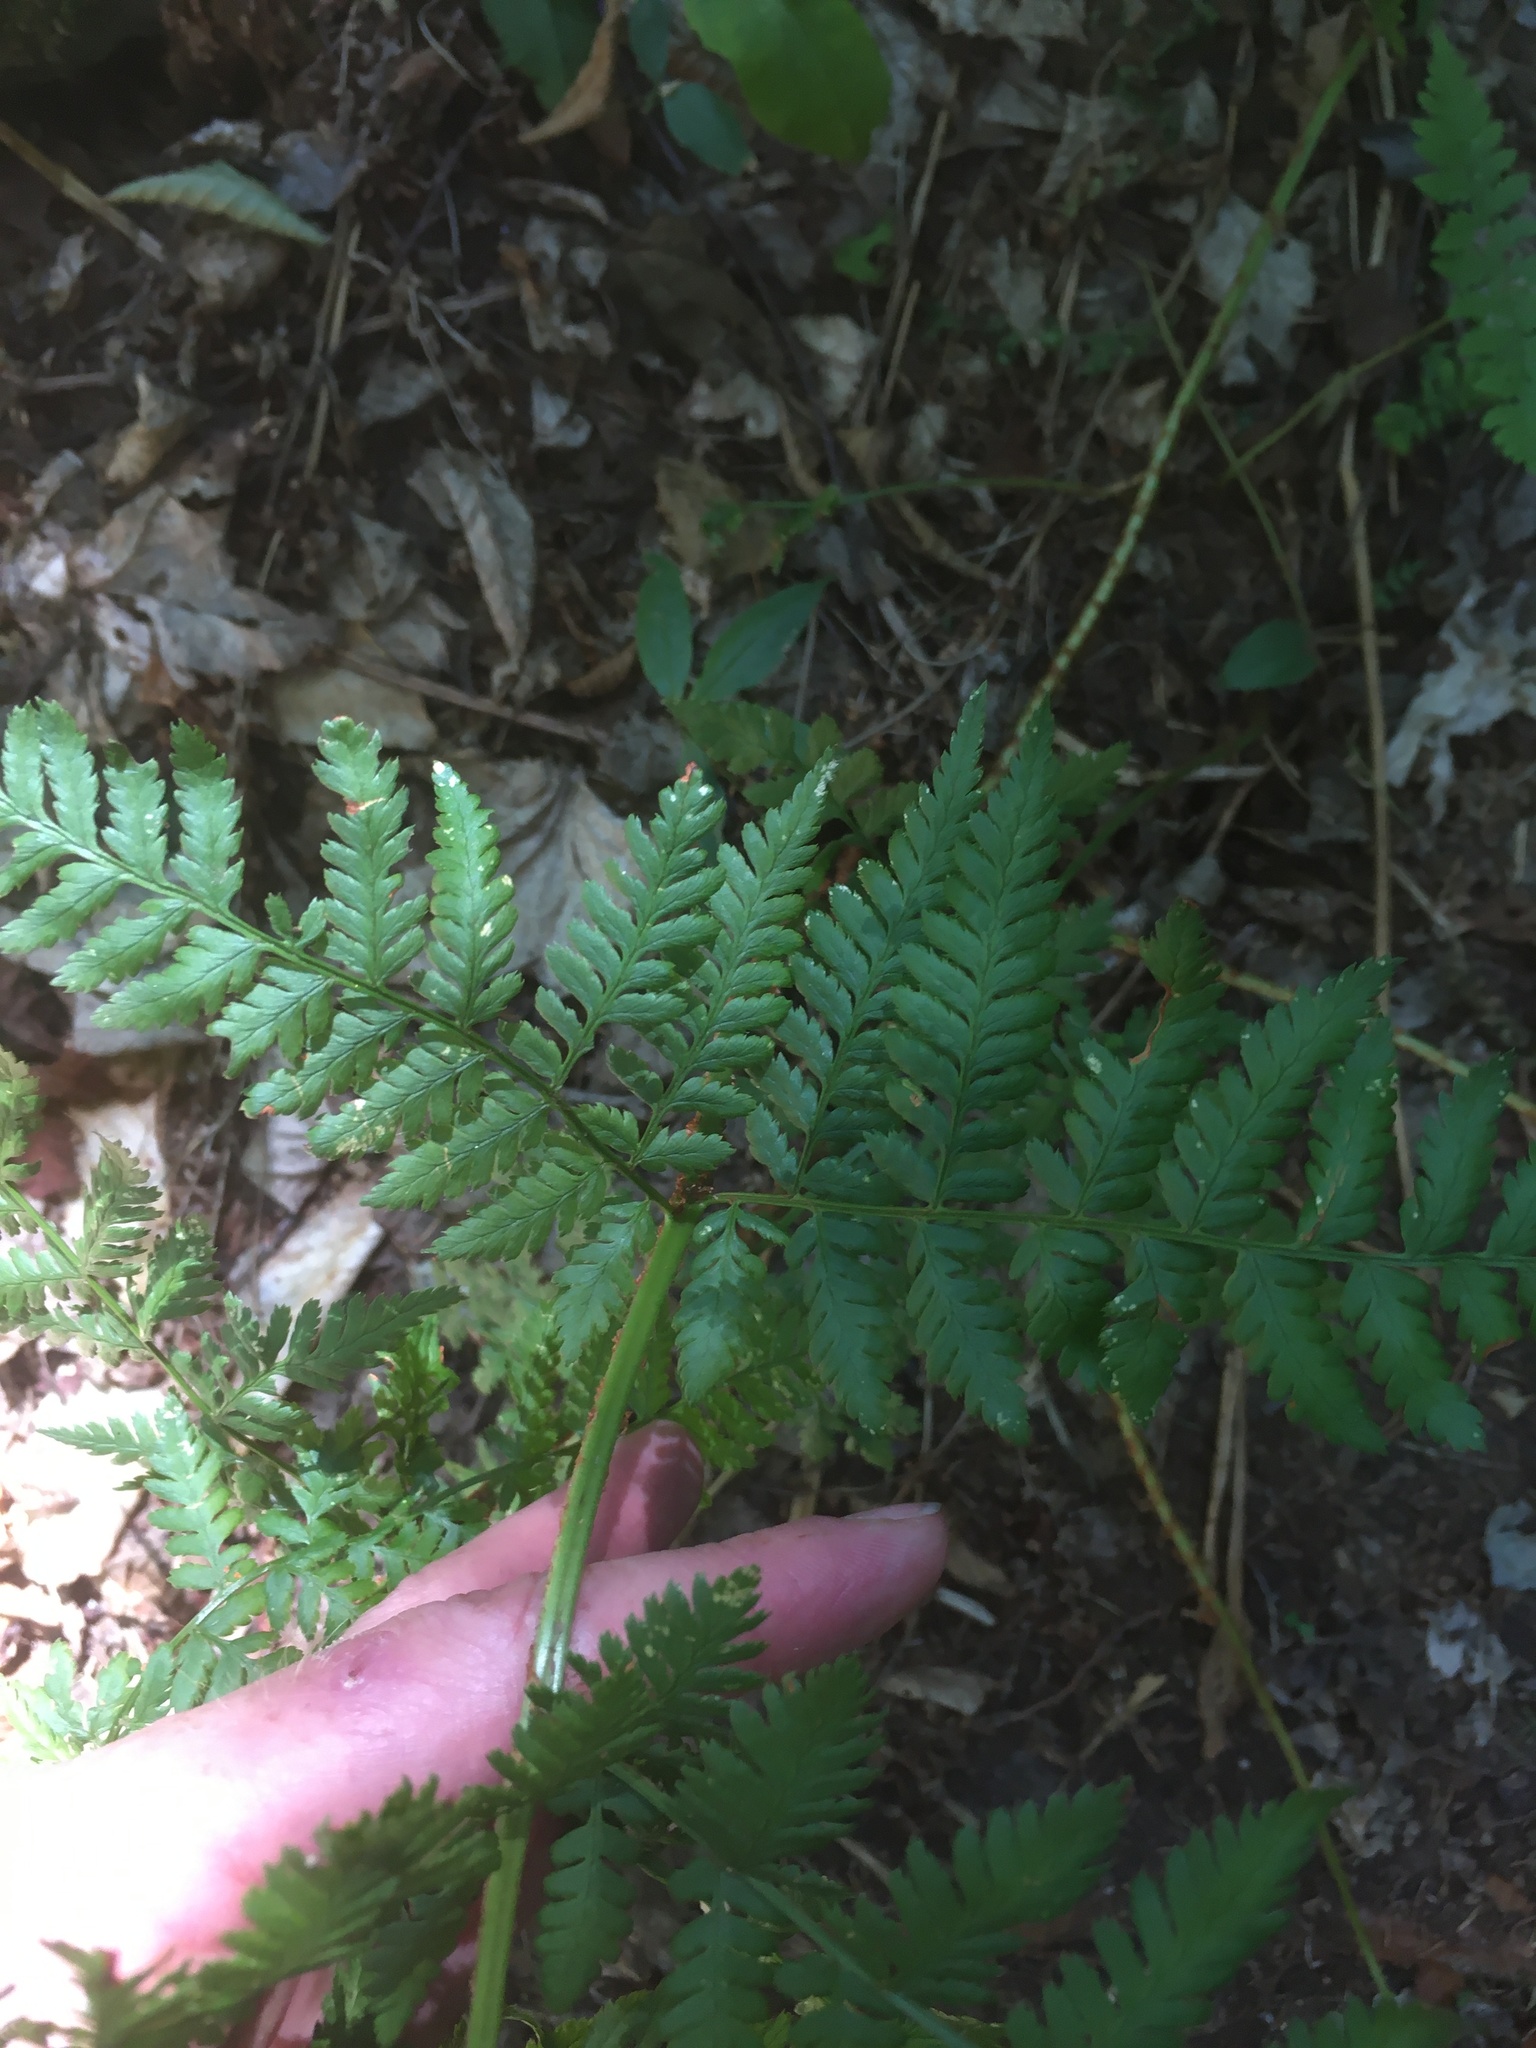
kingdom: Plantae
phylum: Tracheophyta
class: Polypodiopsida
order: Polypodiales
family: Dryopteridaceae
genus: Dryopteris
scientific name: Dryopteris campyloptera
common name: Mountain wood fern
